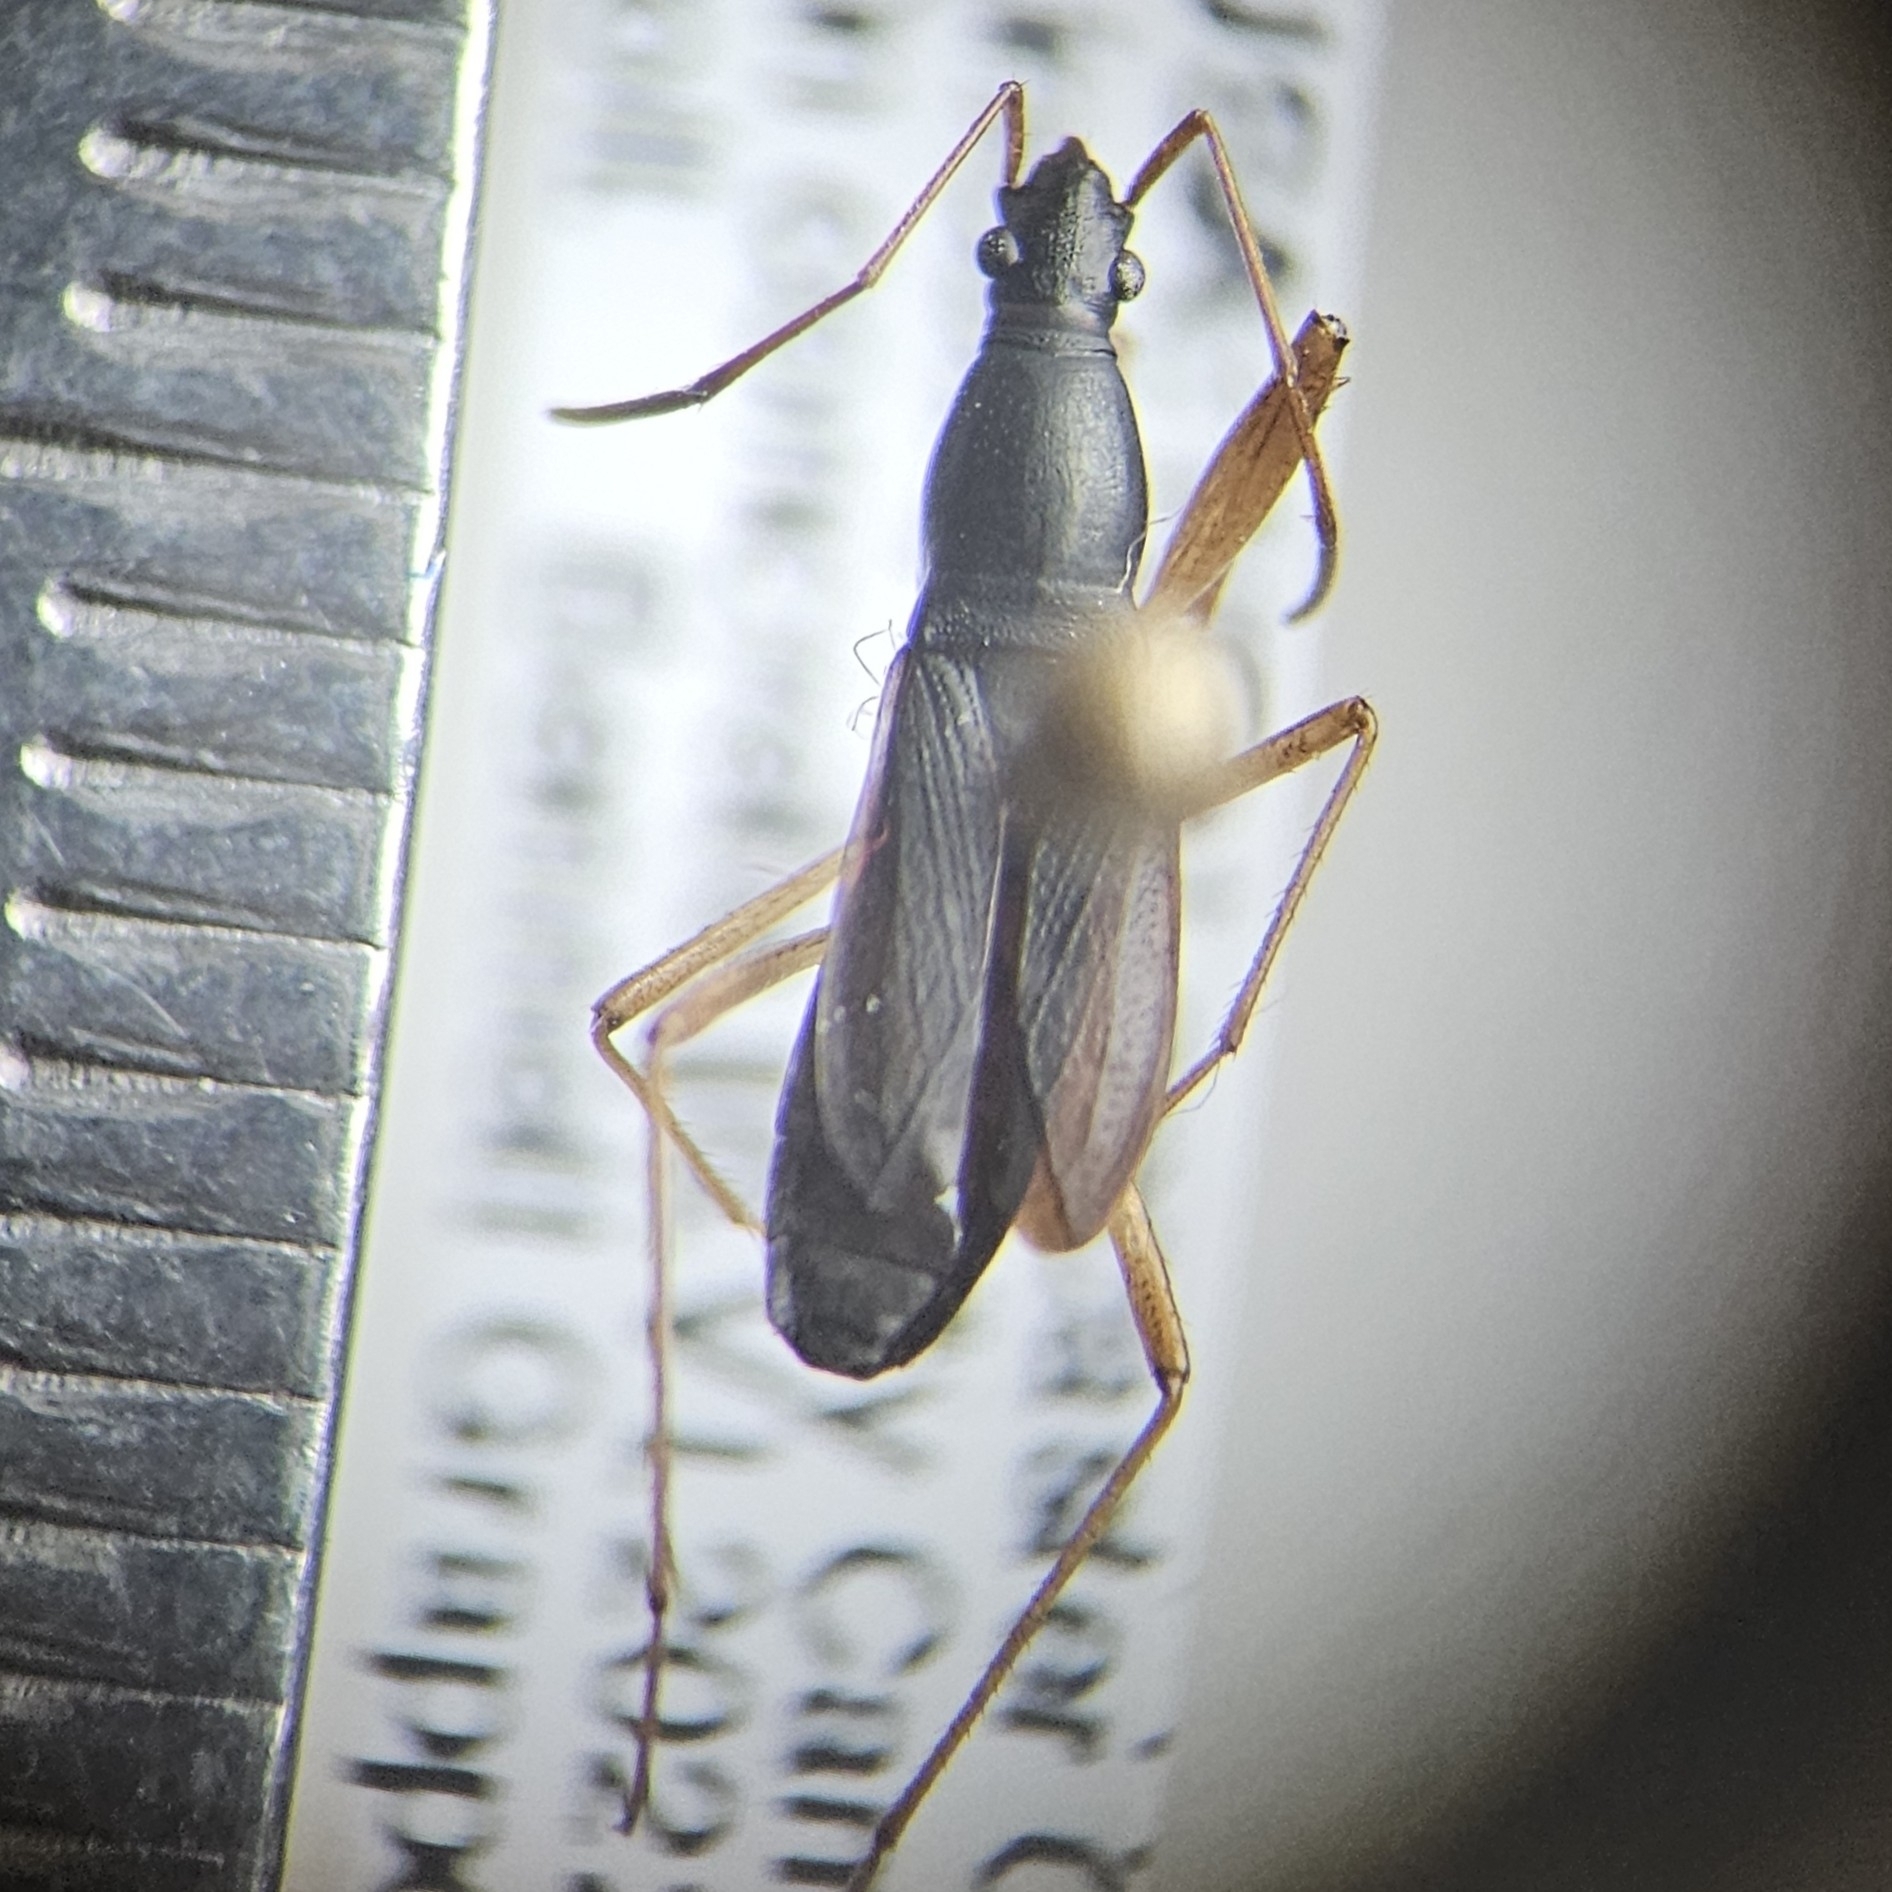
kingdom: Animalia
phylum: Arthropoda
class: Insecta
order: Hemiptera
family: Rhyparochromidae
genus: Cnemodus
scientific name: Cnemodus mavortius
